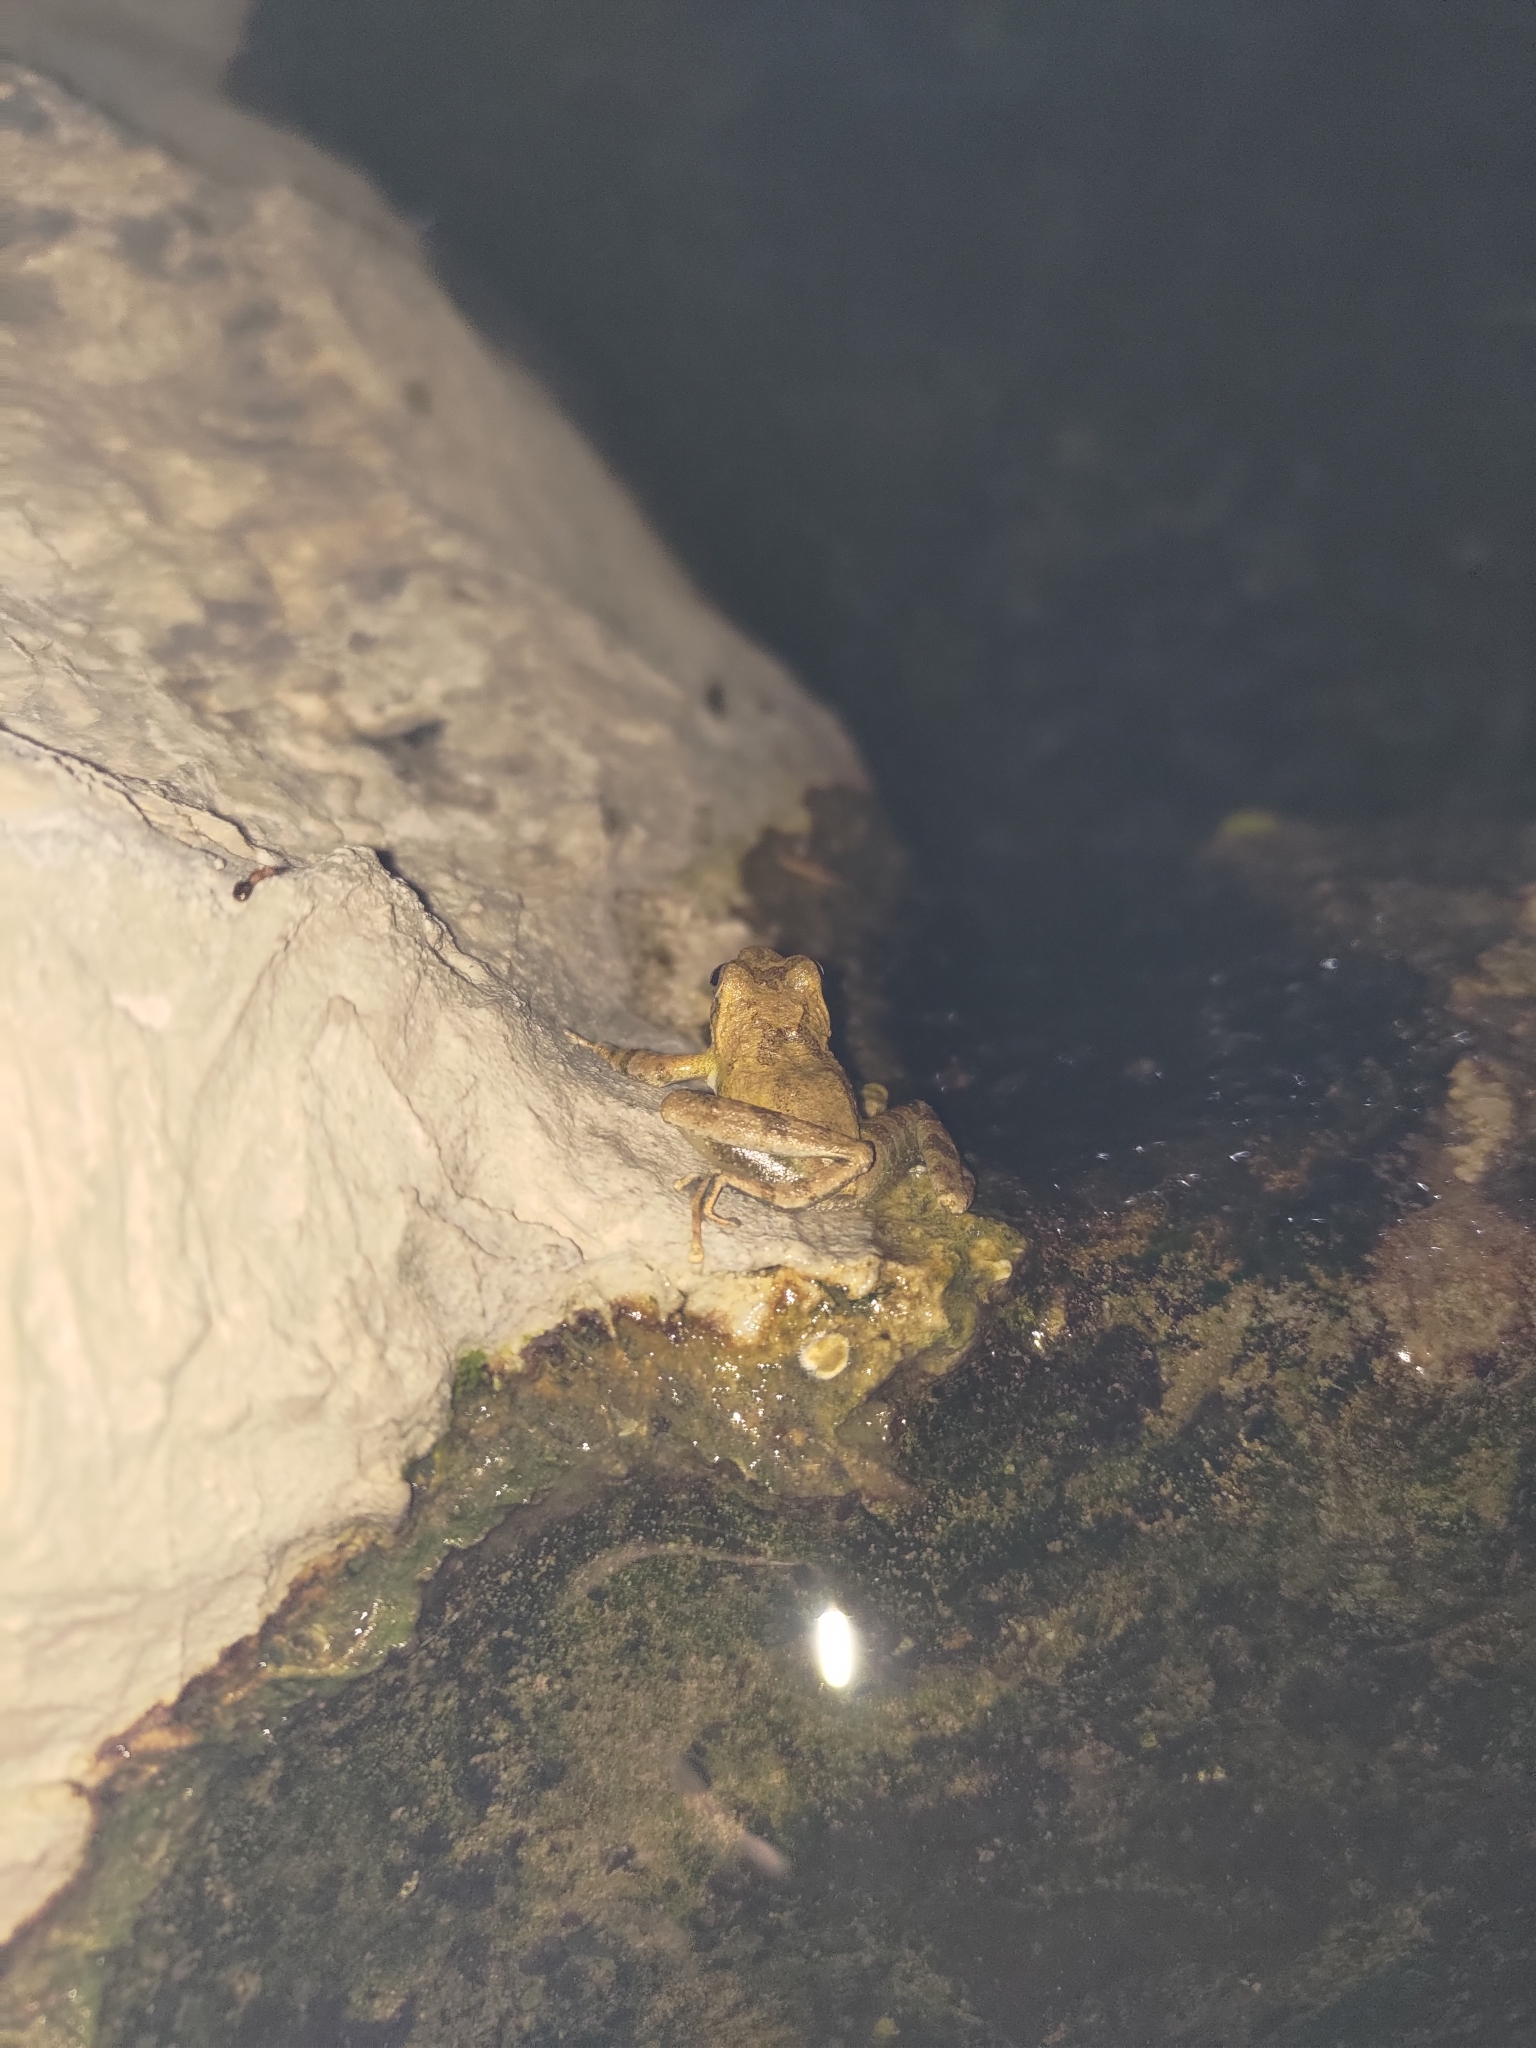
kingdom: Animalia
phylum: Chordata
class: Amphibia
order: Anura
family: Rhacophoridae
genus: Buergeria
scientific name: Buergeria otai
